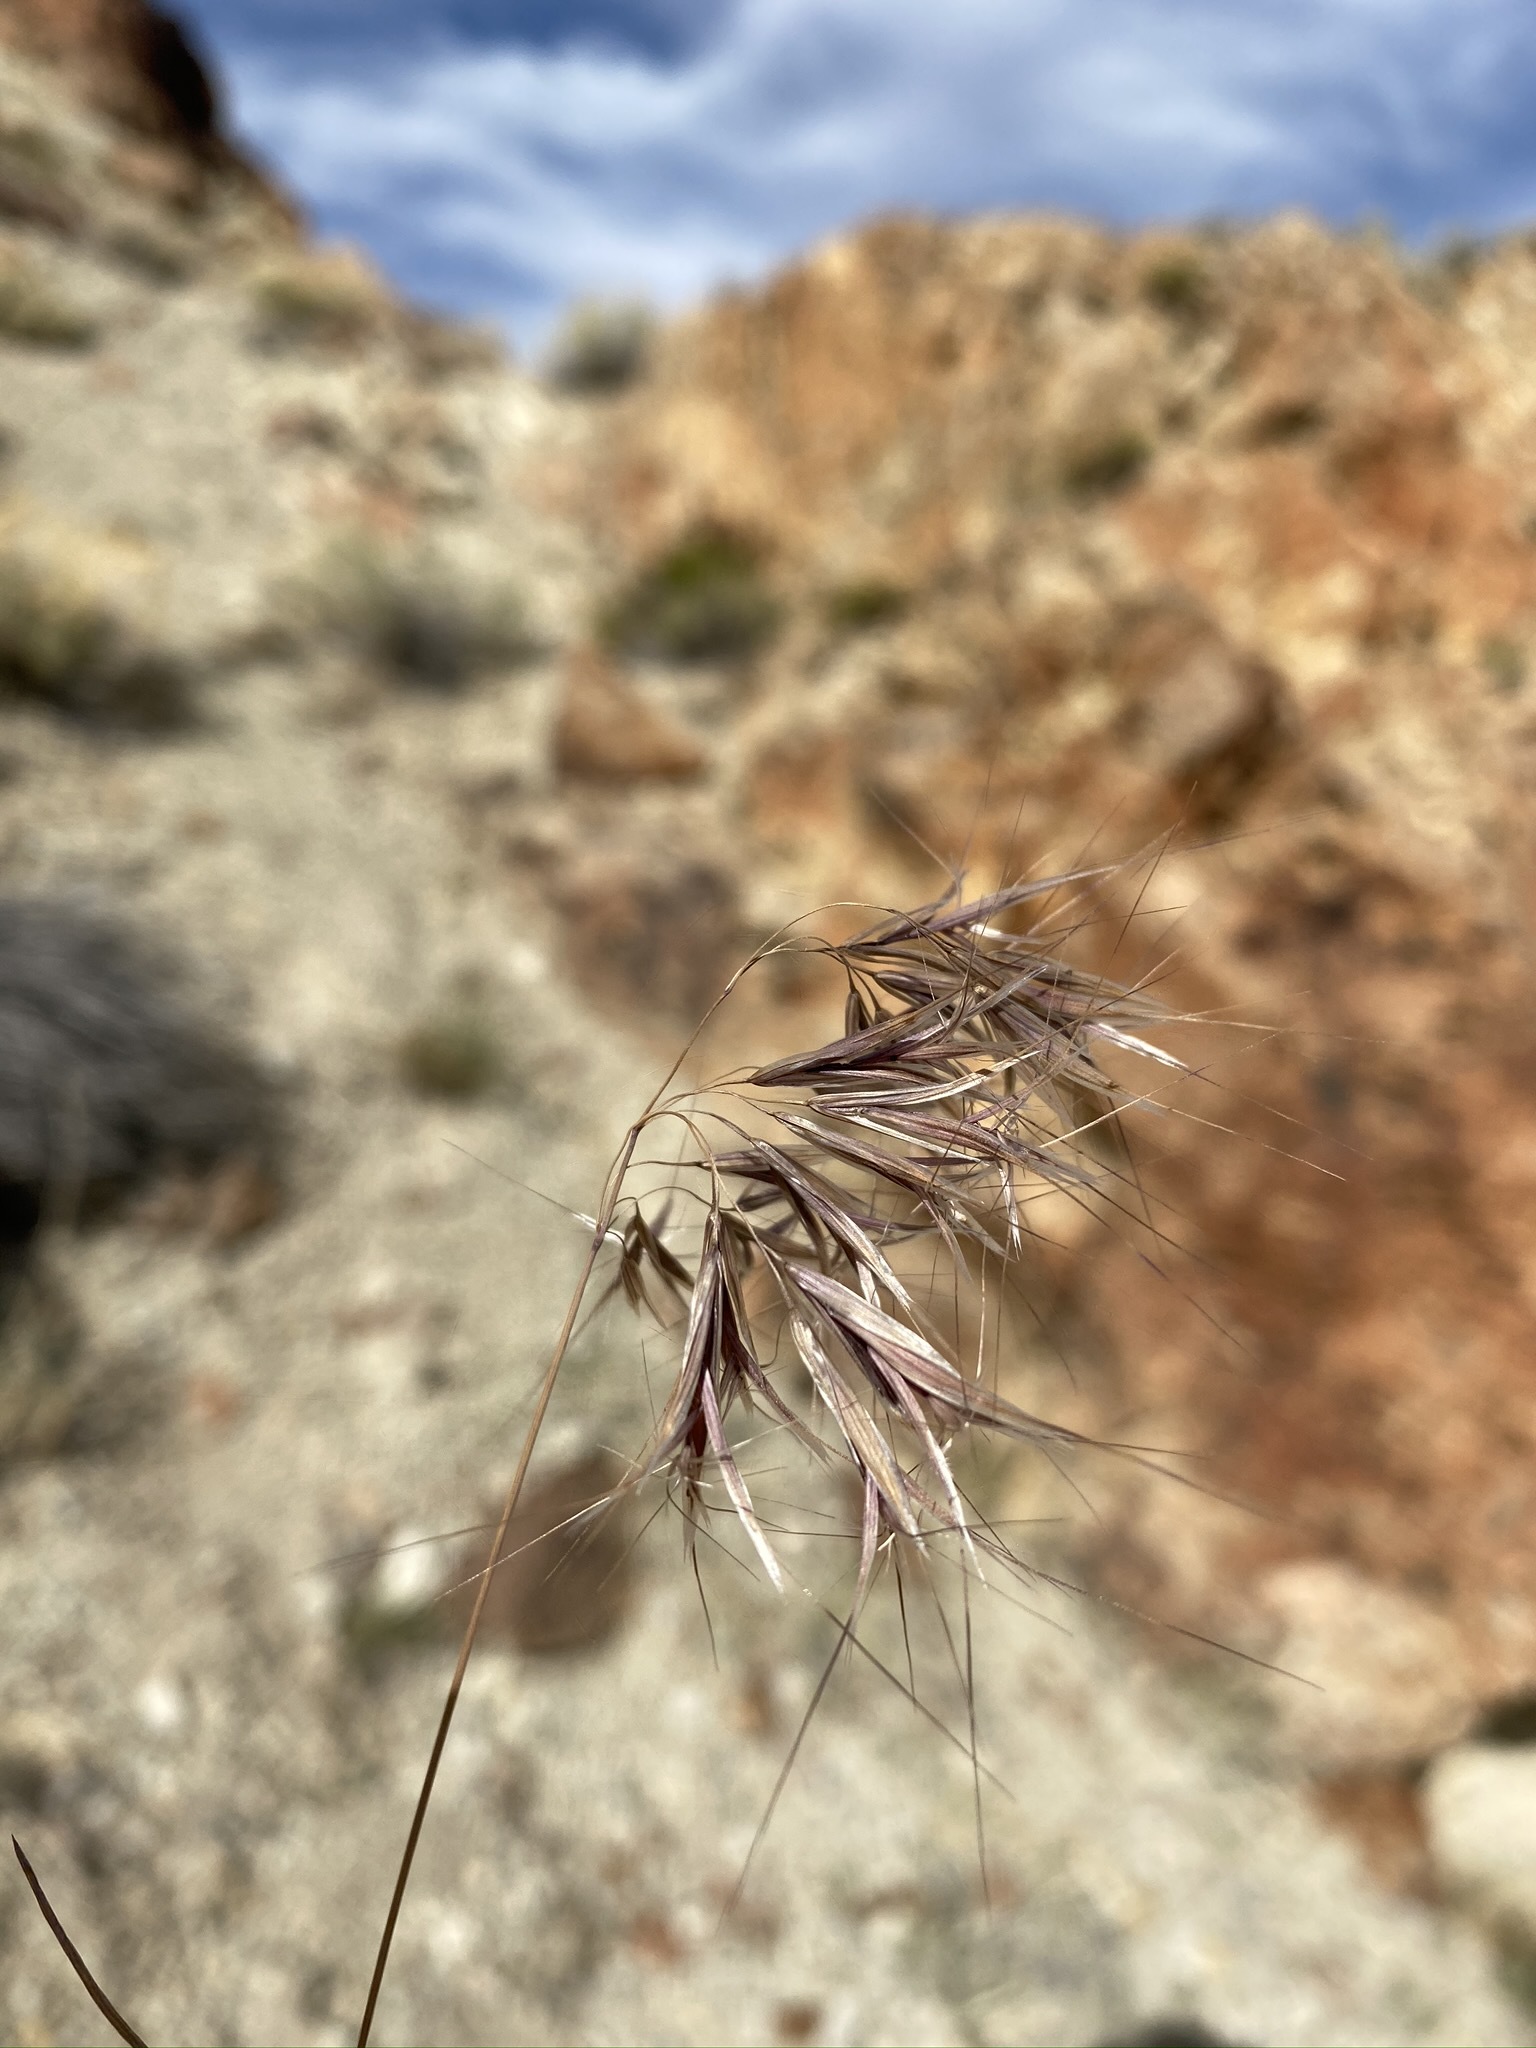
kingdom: Plantae
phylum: Tracheophyta
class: Liliopsida
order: Poales
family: Poaceae
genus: Bromus
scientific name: Bromus tectorum
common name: Cheatgrass
